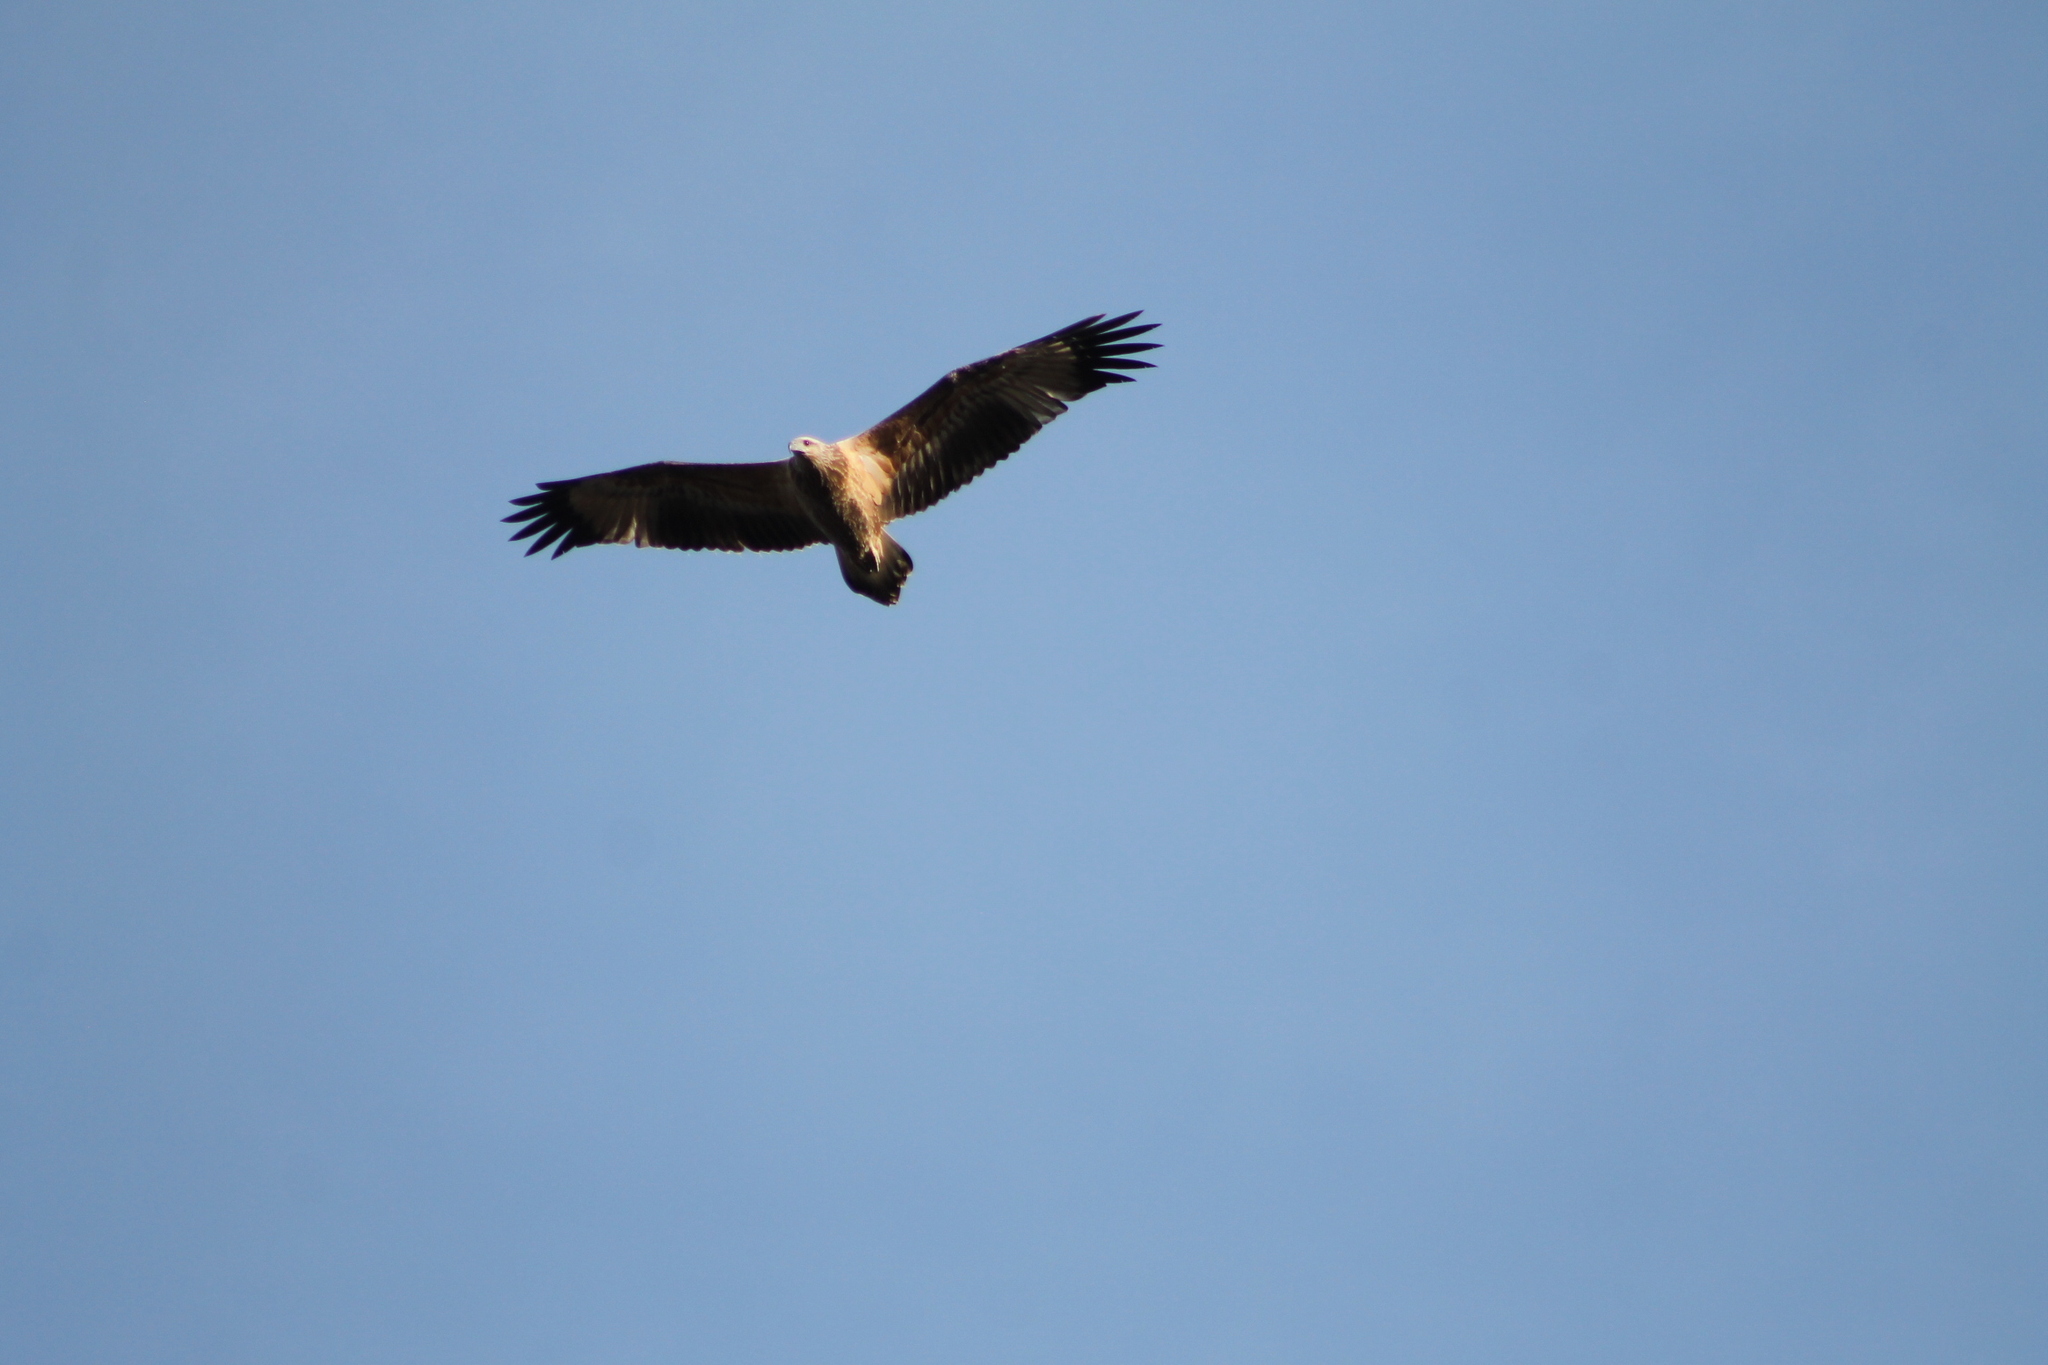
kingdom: Animalia
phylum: Chordata
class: Aves
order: Accipitriformes
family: Accipitridae
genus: Haliaeetus
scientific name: Haliaeetus leucogaster
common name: White-bellied sea eagle
